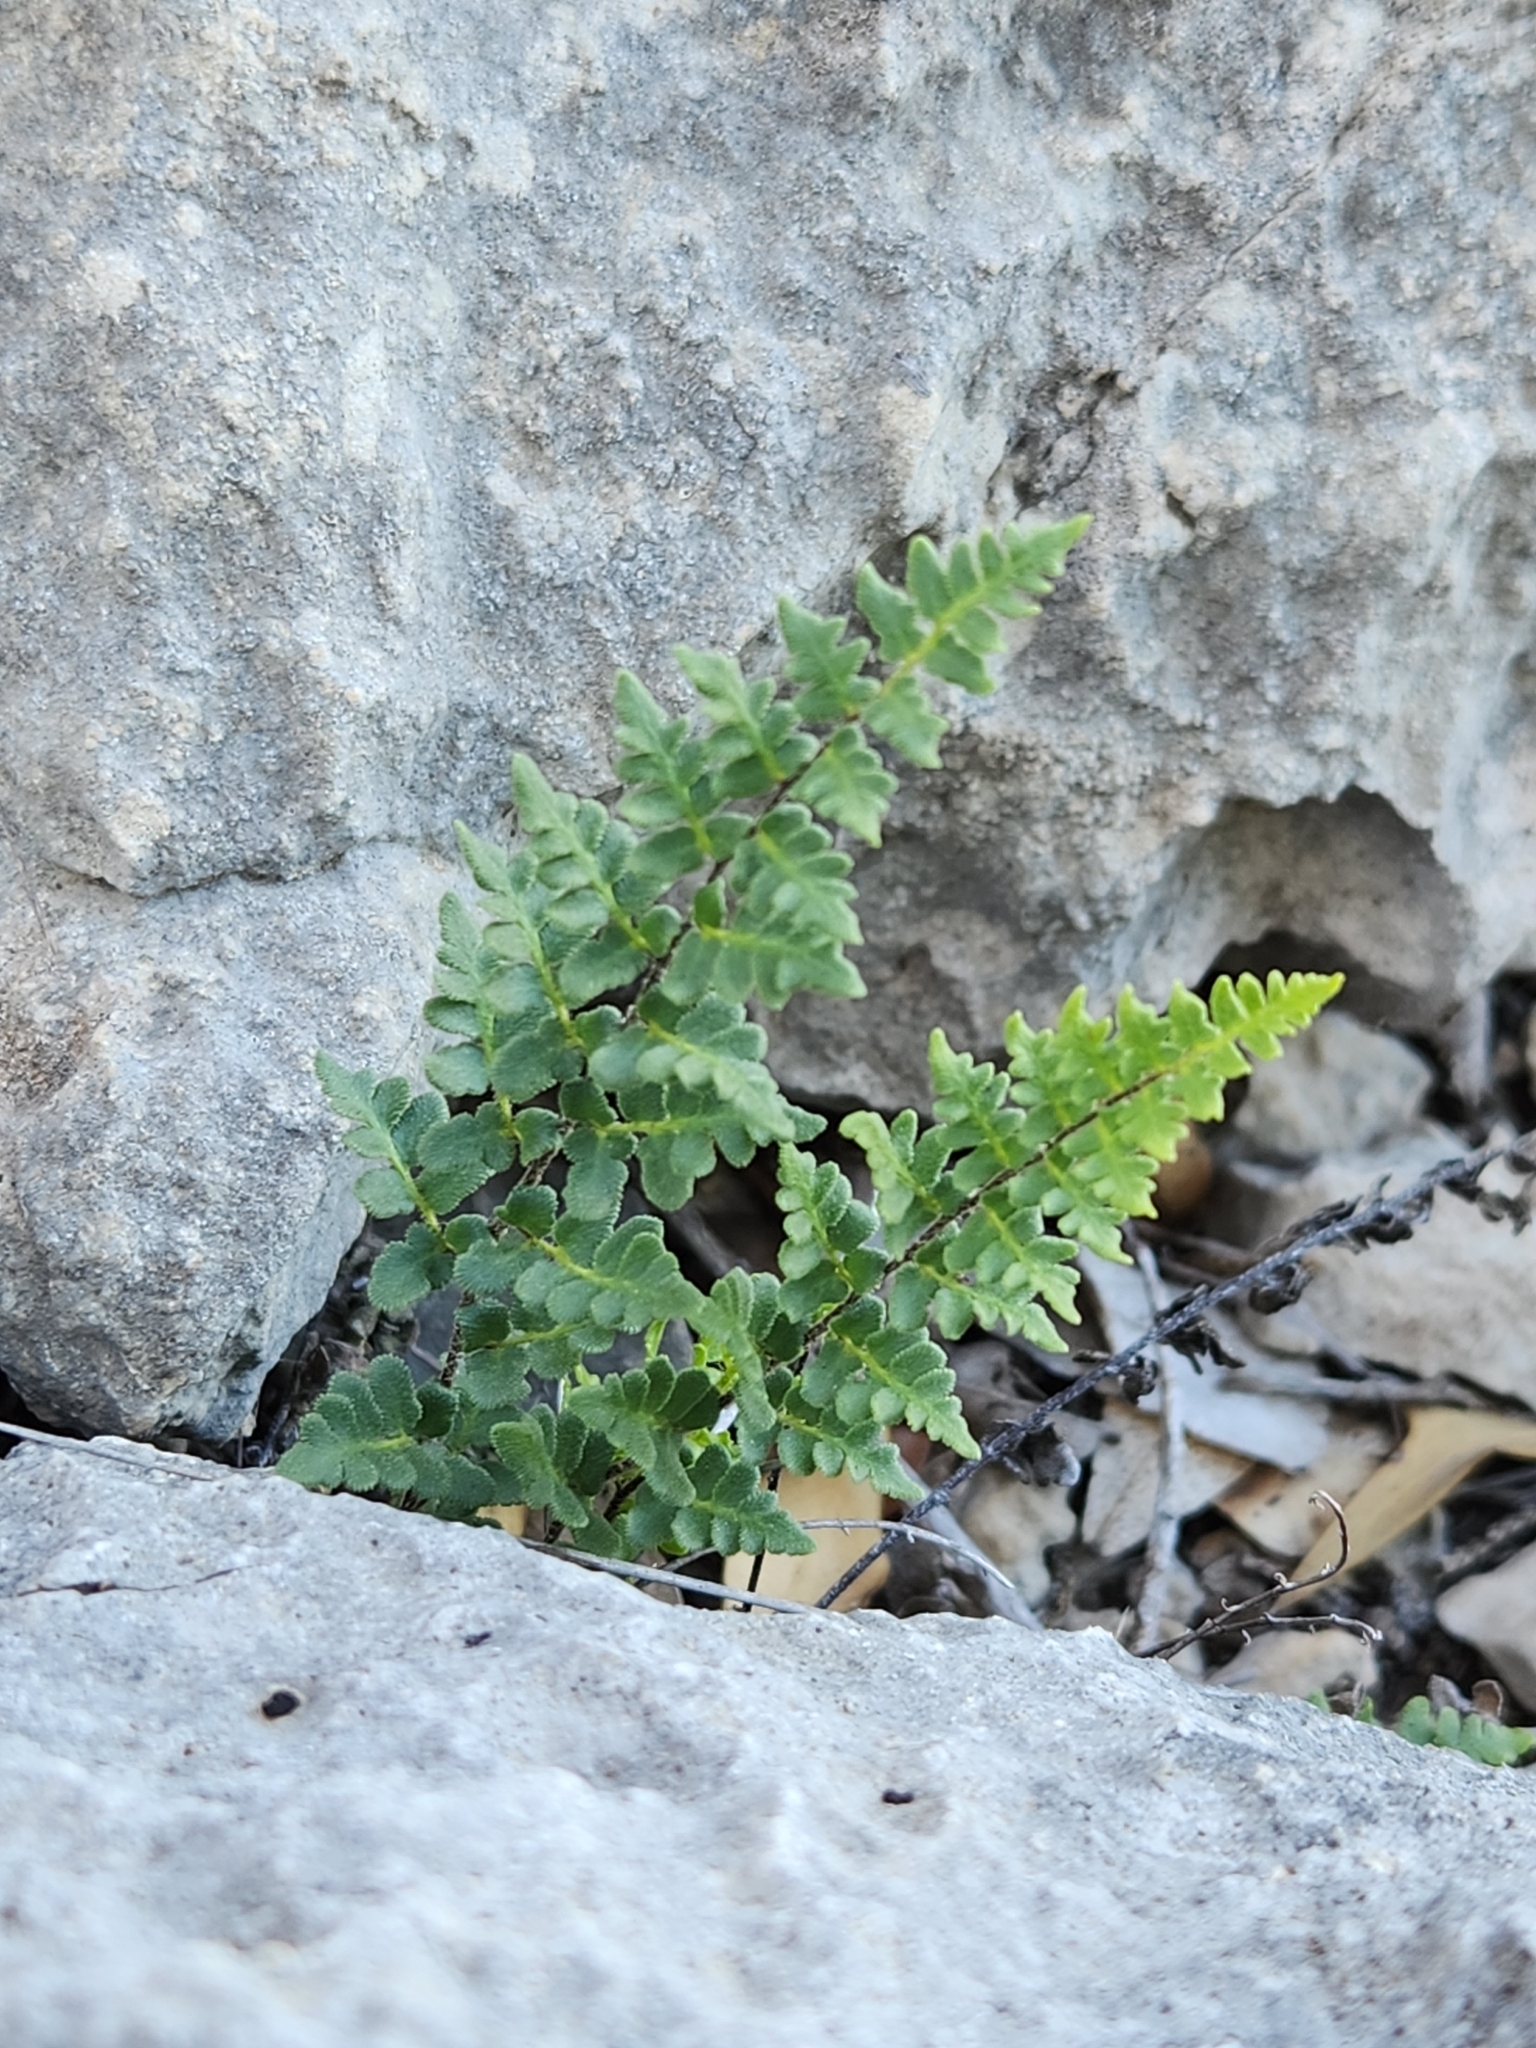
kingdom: Plantae
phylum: Tracheophyta
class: Polypodiopsida
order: Polypodiales
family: Pteridaceae
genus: Myriopteris
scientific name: Myriopteris scabra
